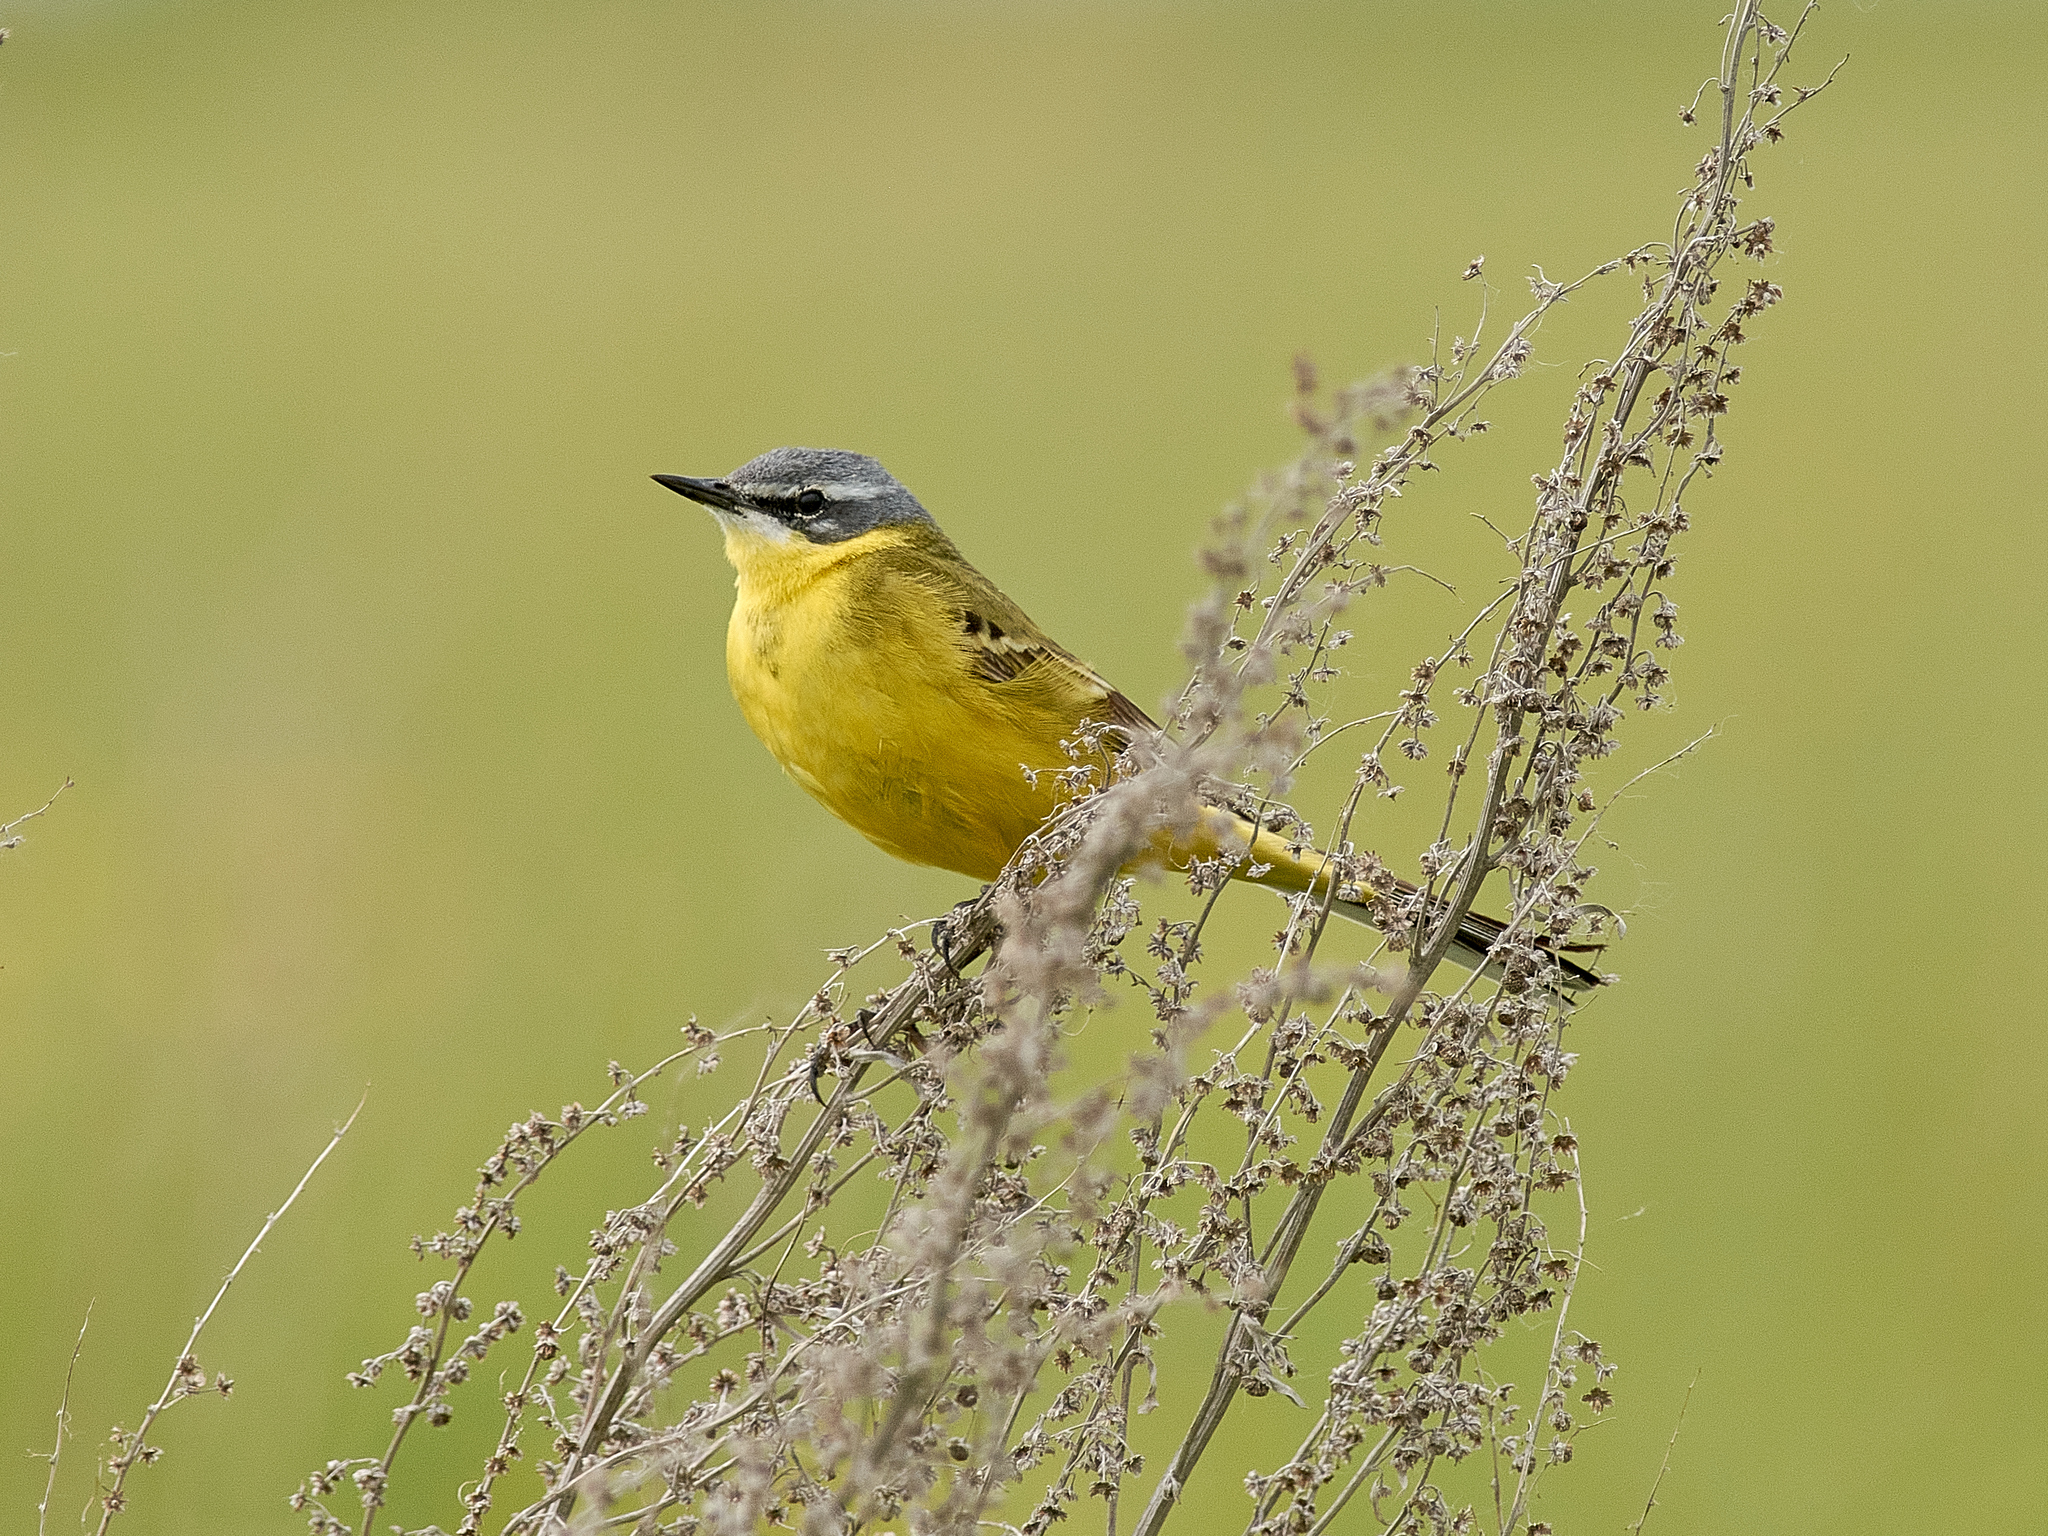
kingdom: Animalia
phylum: Chordata
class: Aves
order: Passeriformes
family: Motacillidae
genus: Motacilla
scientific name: Motacilla flava
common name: Western yellow wagtail
